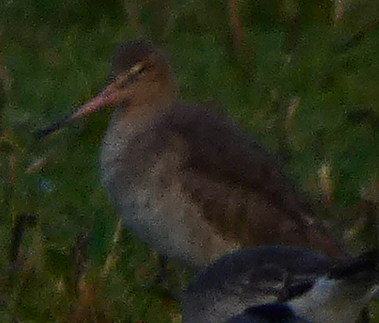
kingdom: Animalia
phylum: Chordata
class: Aves
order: Charadriiformes
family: Scolopacidae
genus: Limosa
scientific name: Limosa limosa
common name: Black-tailed godwit
